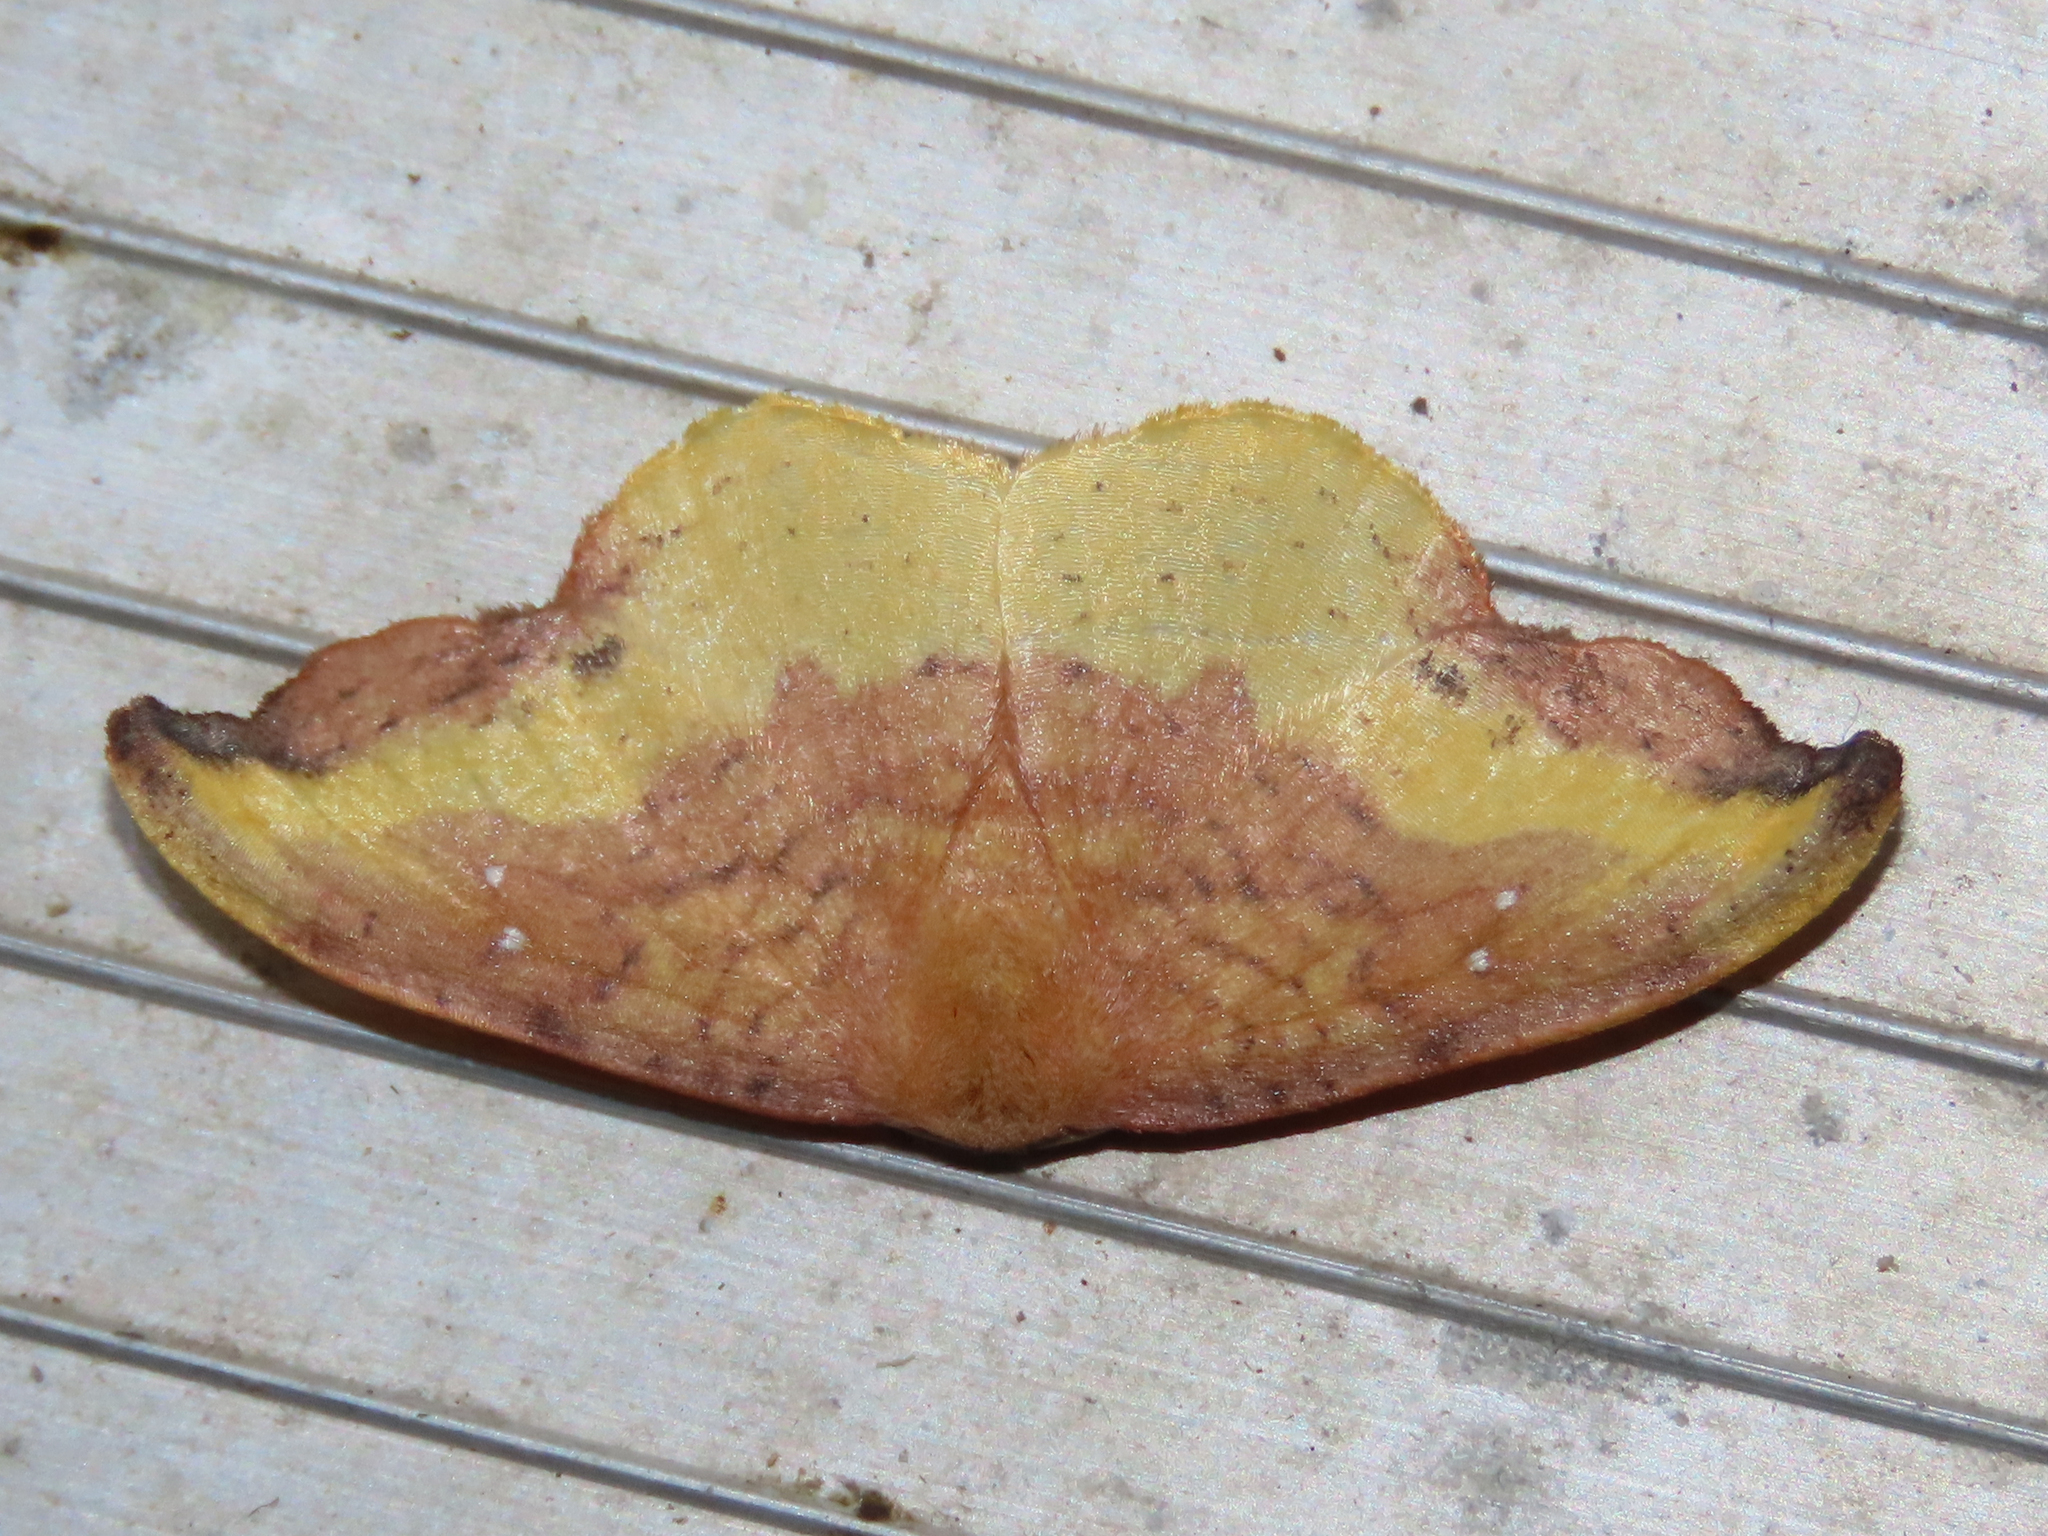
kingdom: Animalia
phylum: Arthropoda
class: Insecta
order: Lepidoptera
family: Drepanidae
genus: Oreta
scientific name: Oreta rosea
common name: Rose hooktip
